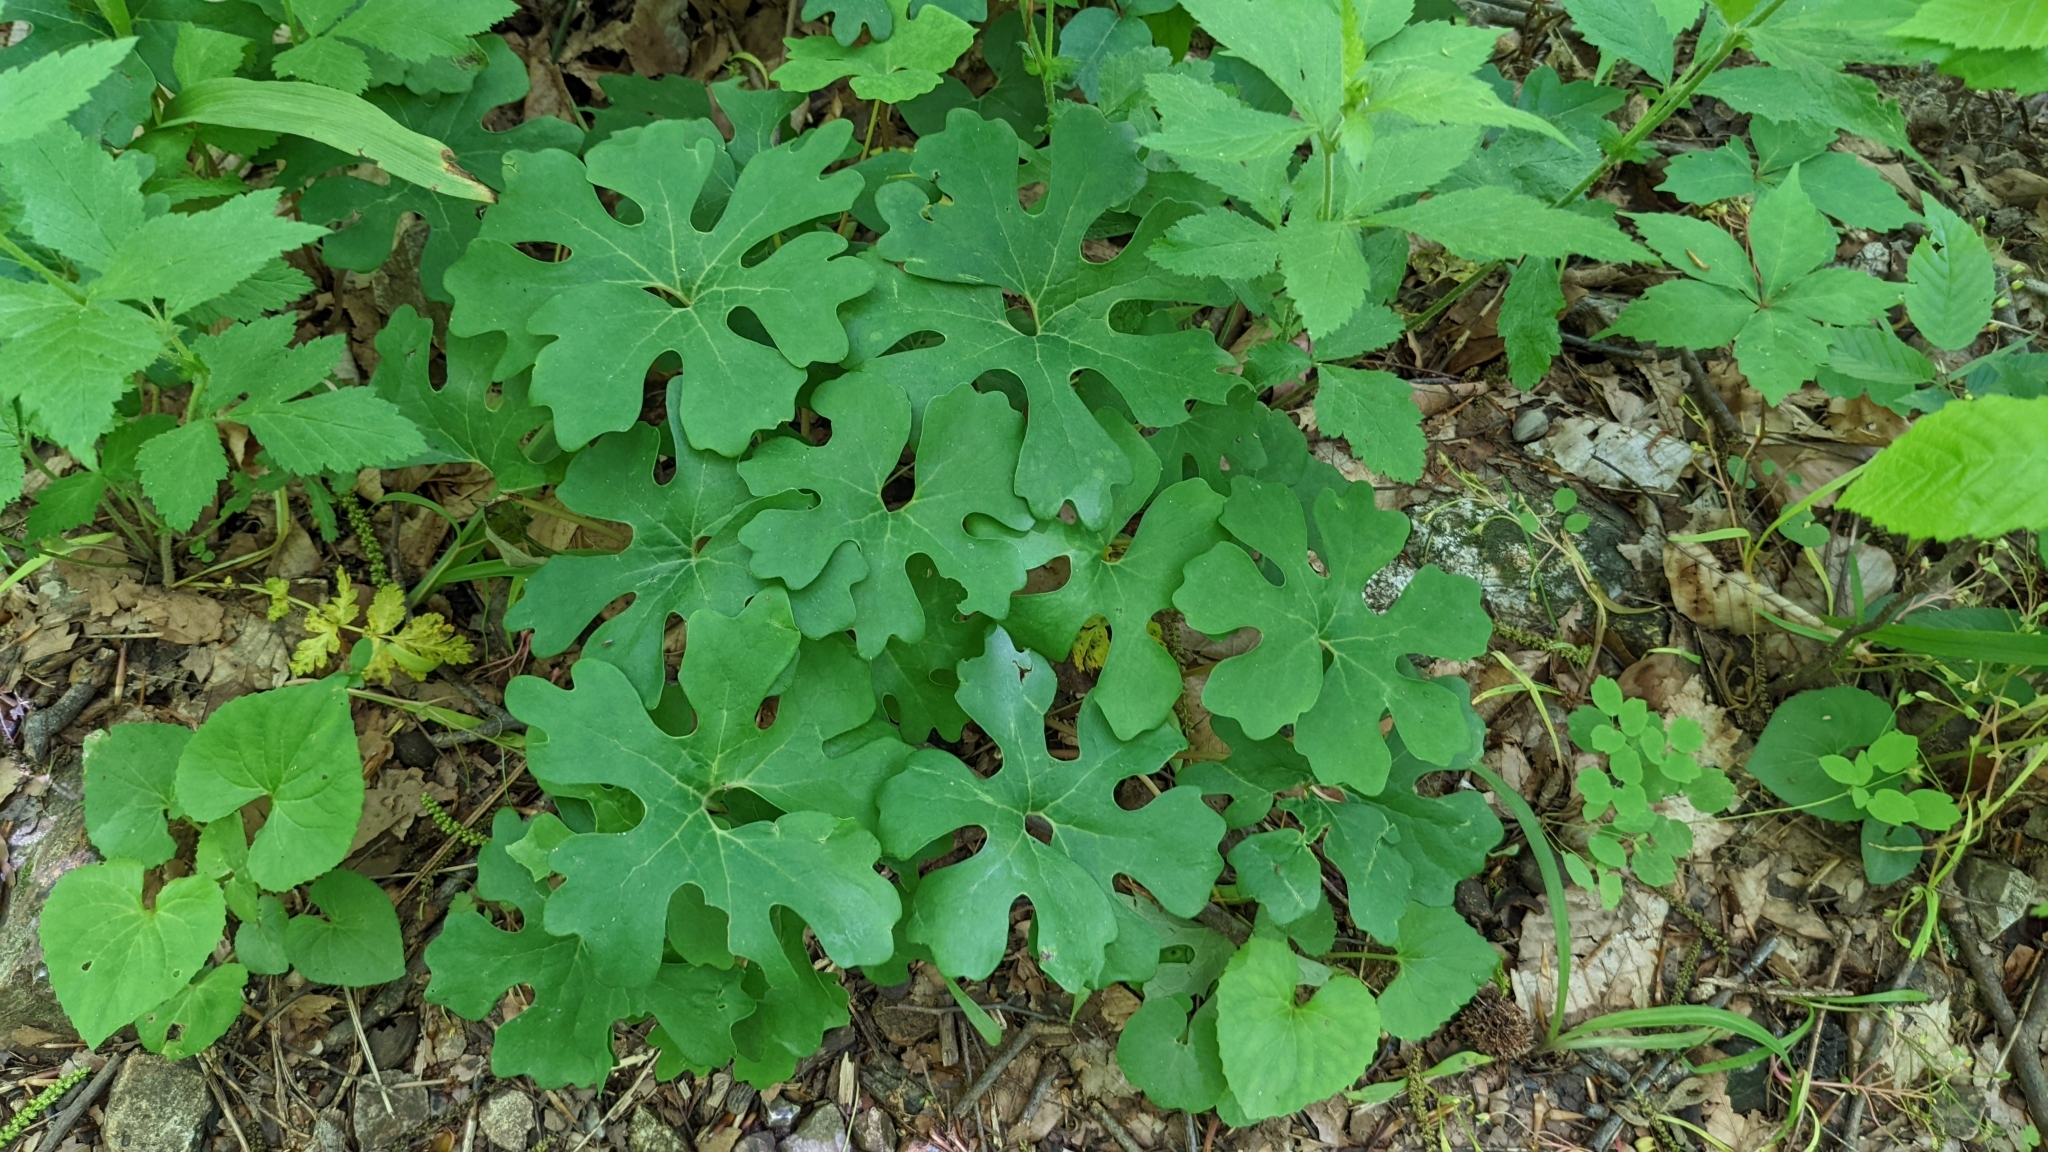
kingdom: Plantae
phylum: Tracheophyta
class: Magnoliopsida
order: Ranunculales
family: Papaveraceae
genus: Sanguinaria
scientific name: Sanguinaria canadensis
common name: Bloodroot
